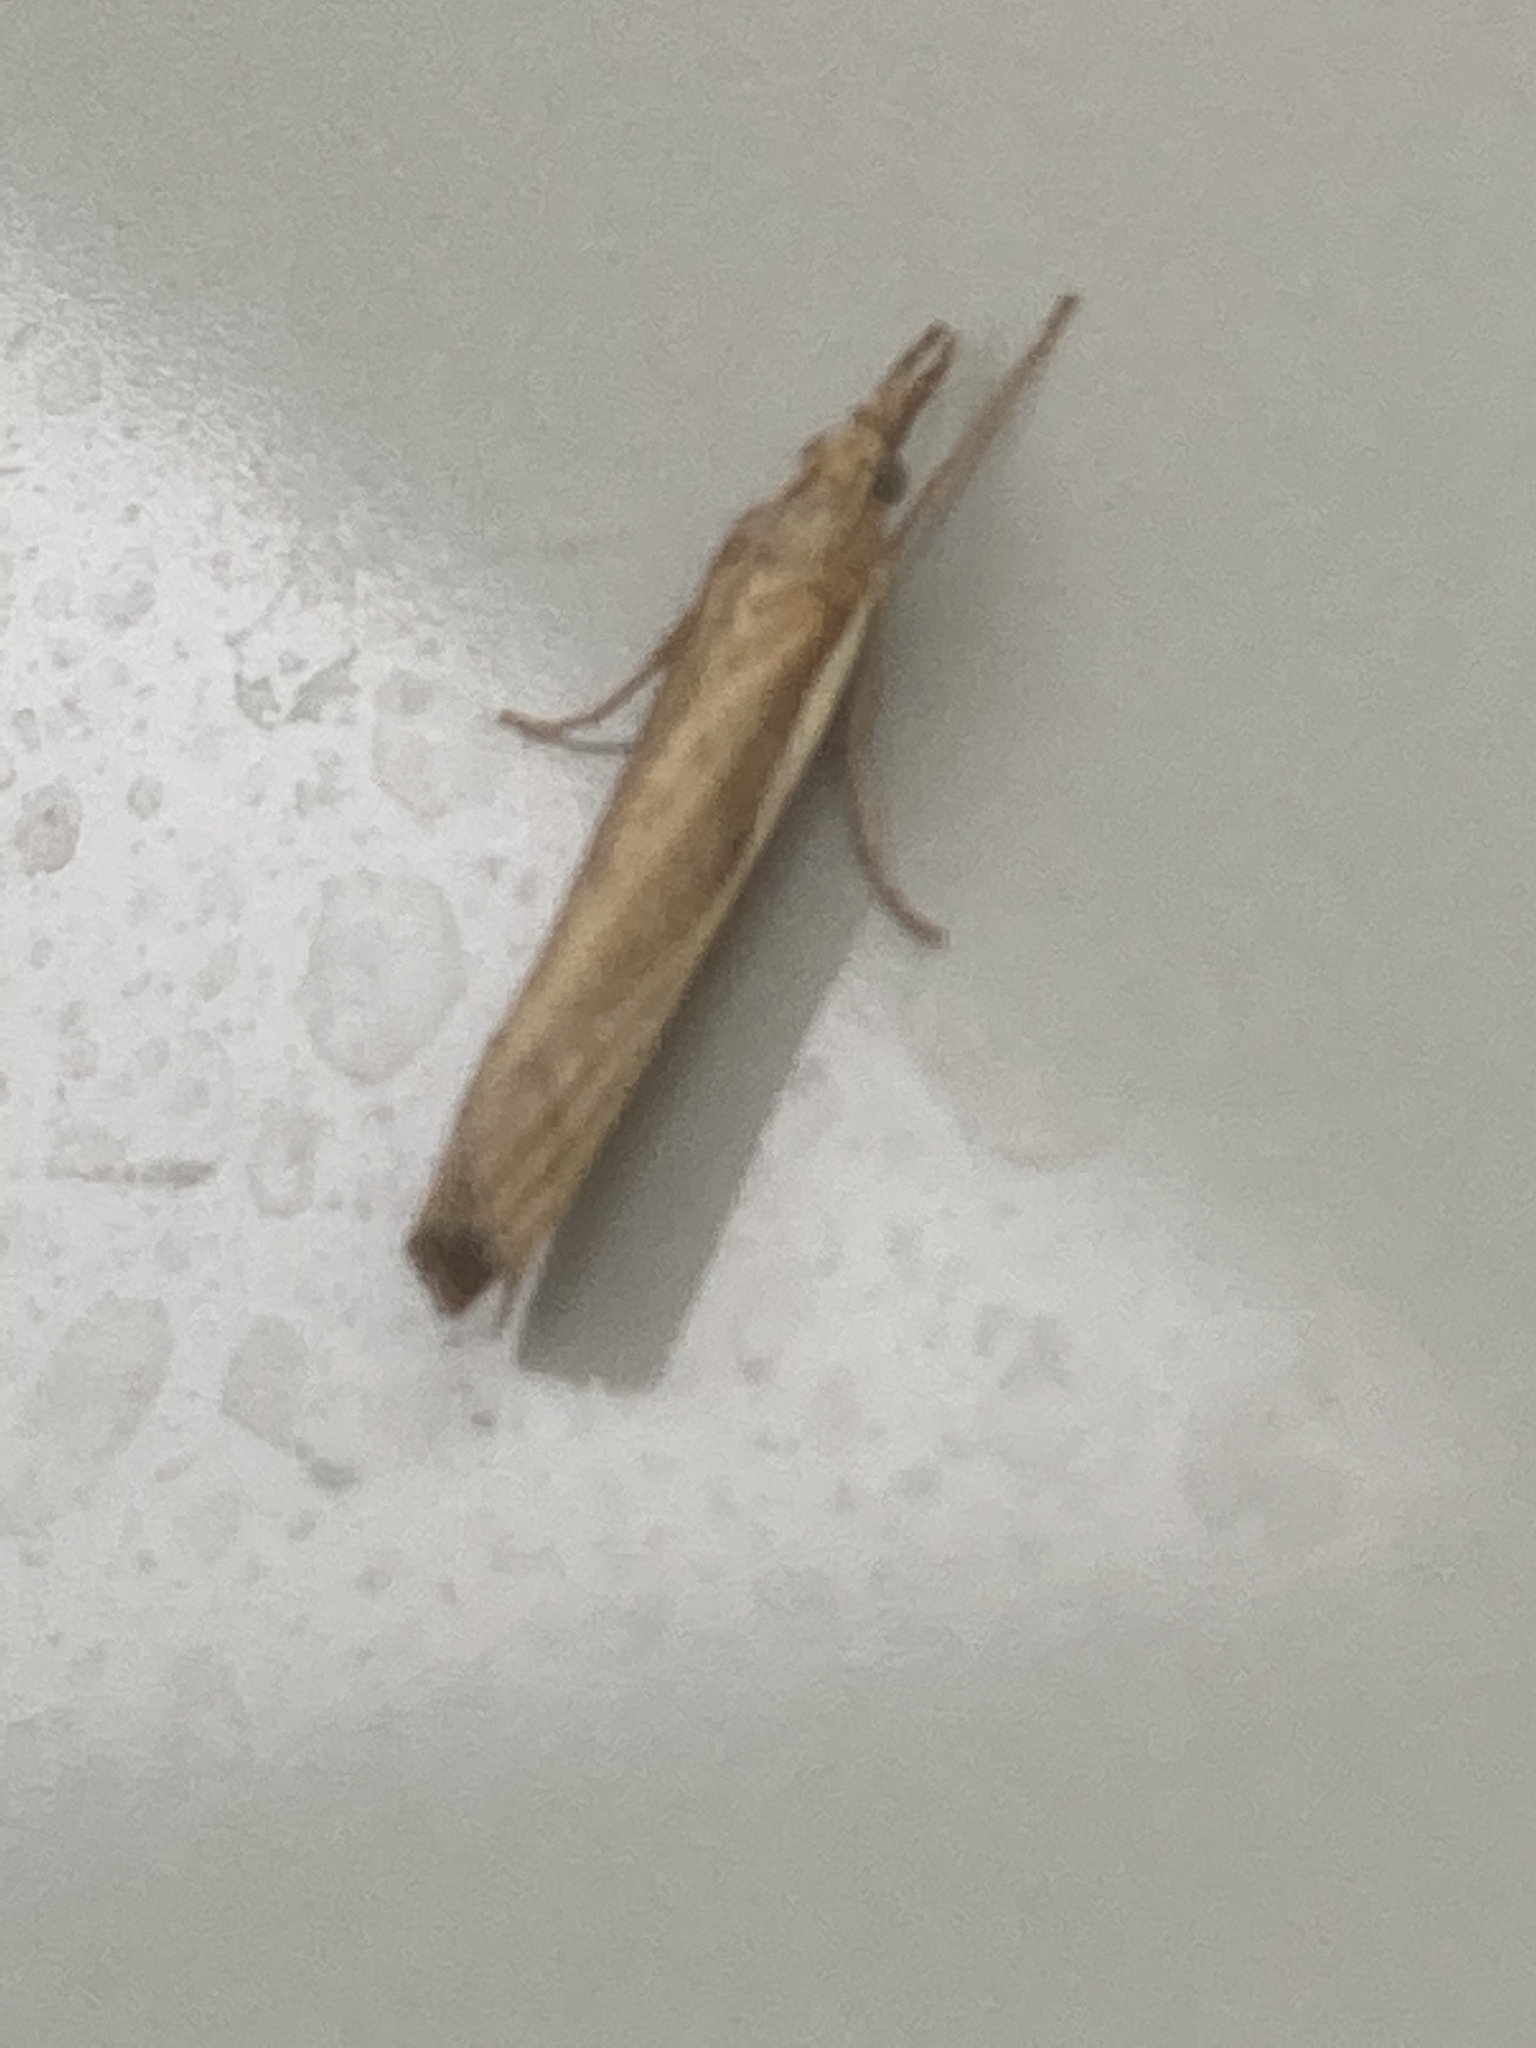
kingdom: Animalia
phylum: Arthropoda
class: Insecta
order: Lepidoptera
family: Crambidae
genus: Agriphila
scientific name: Agriphila tristellus
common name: Common grass-veneer
